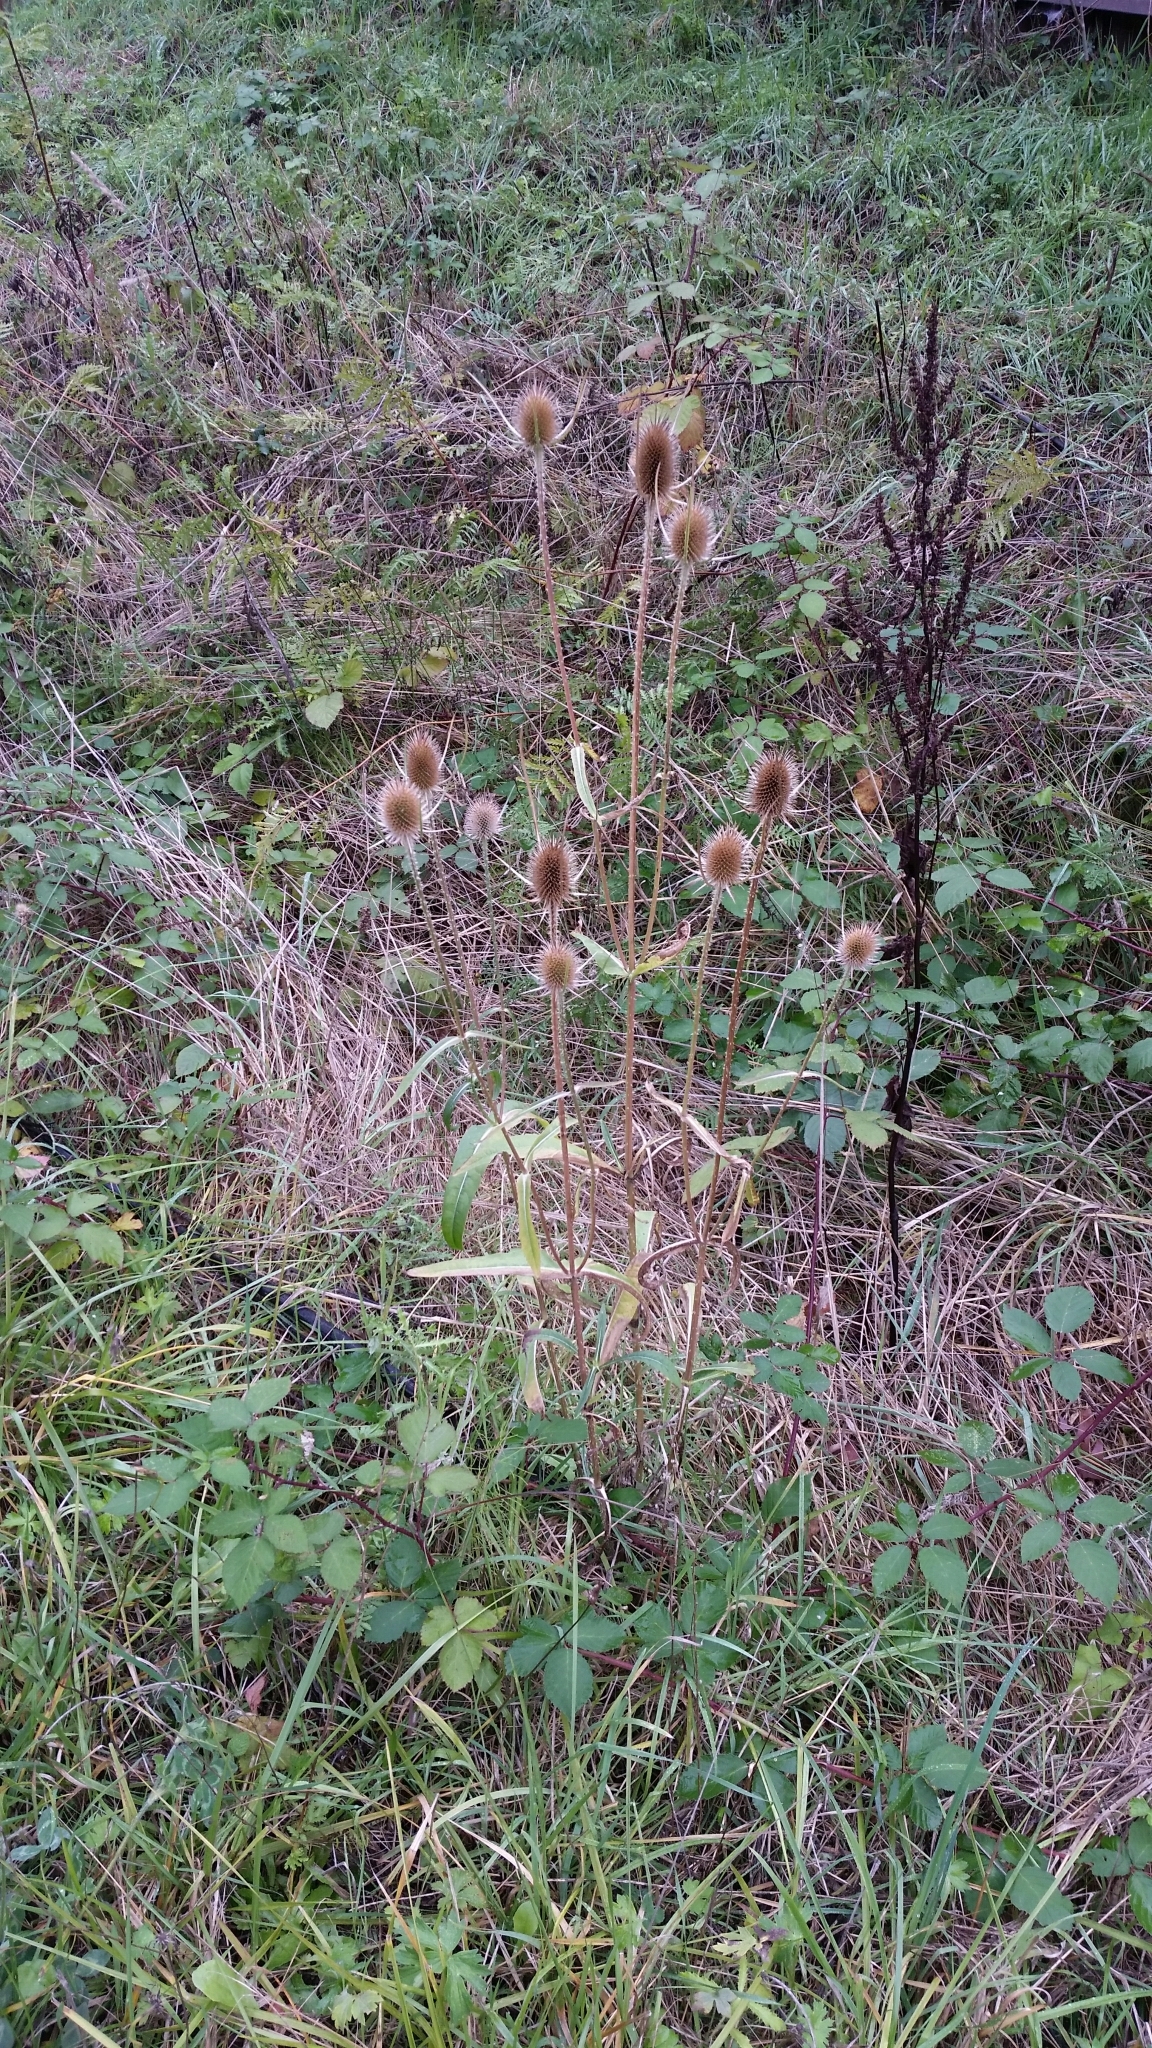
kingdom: Plantae
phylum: Tracheophyta
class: Magnoliopsida
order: Dipsacales
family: Caprifoliaceae
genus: Dipsacus
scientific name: Dipsacus fullonum
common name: Teasel
